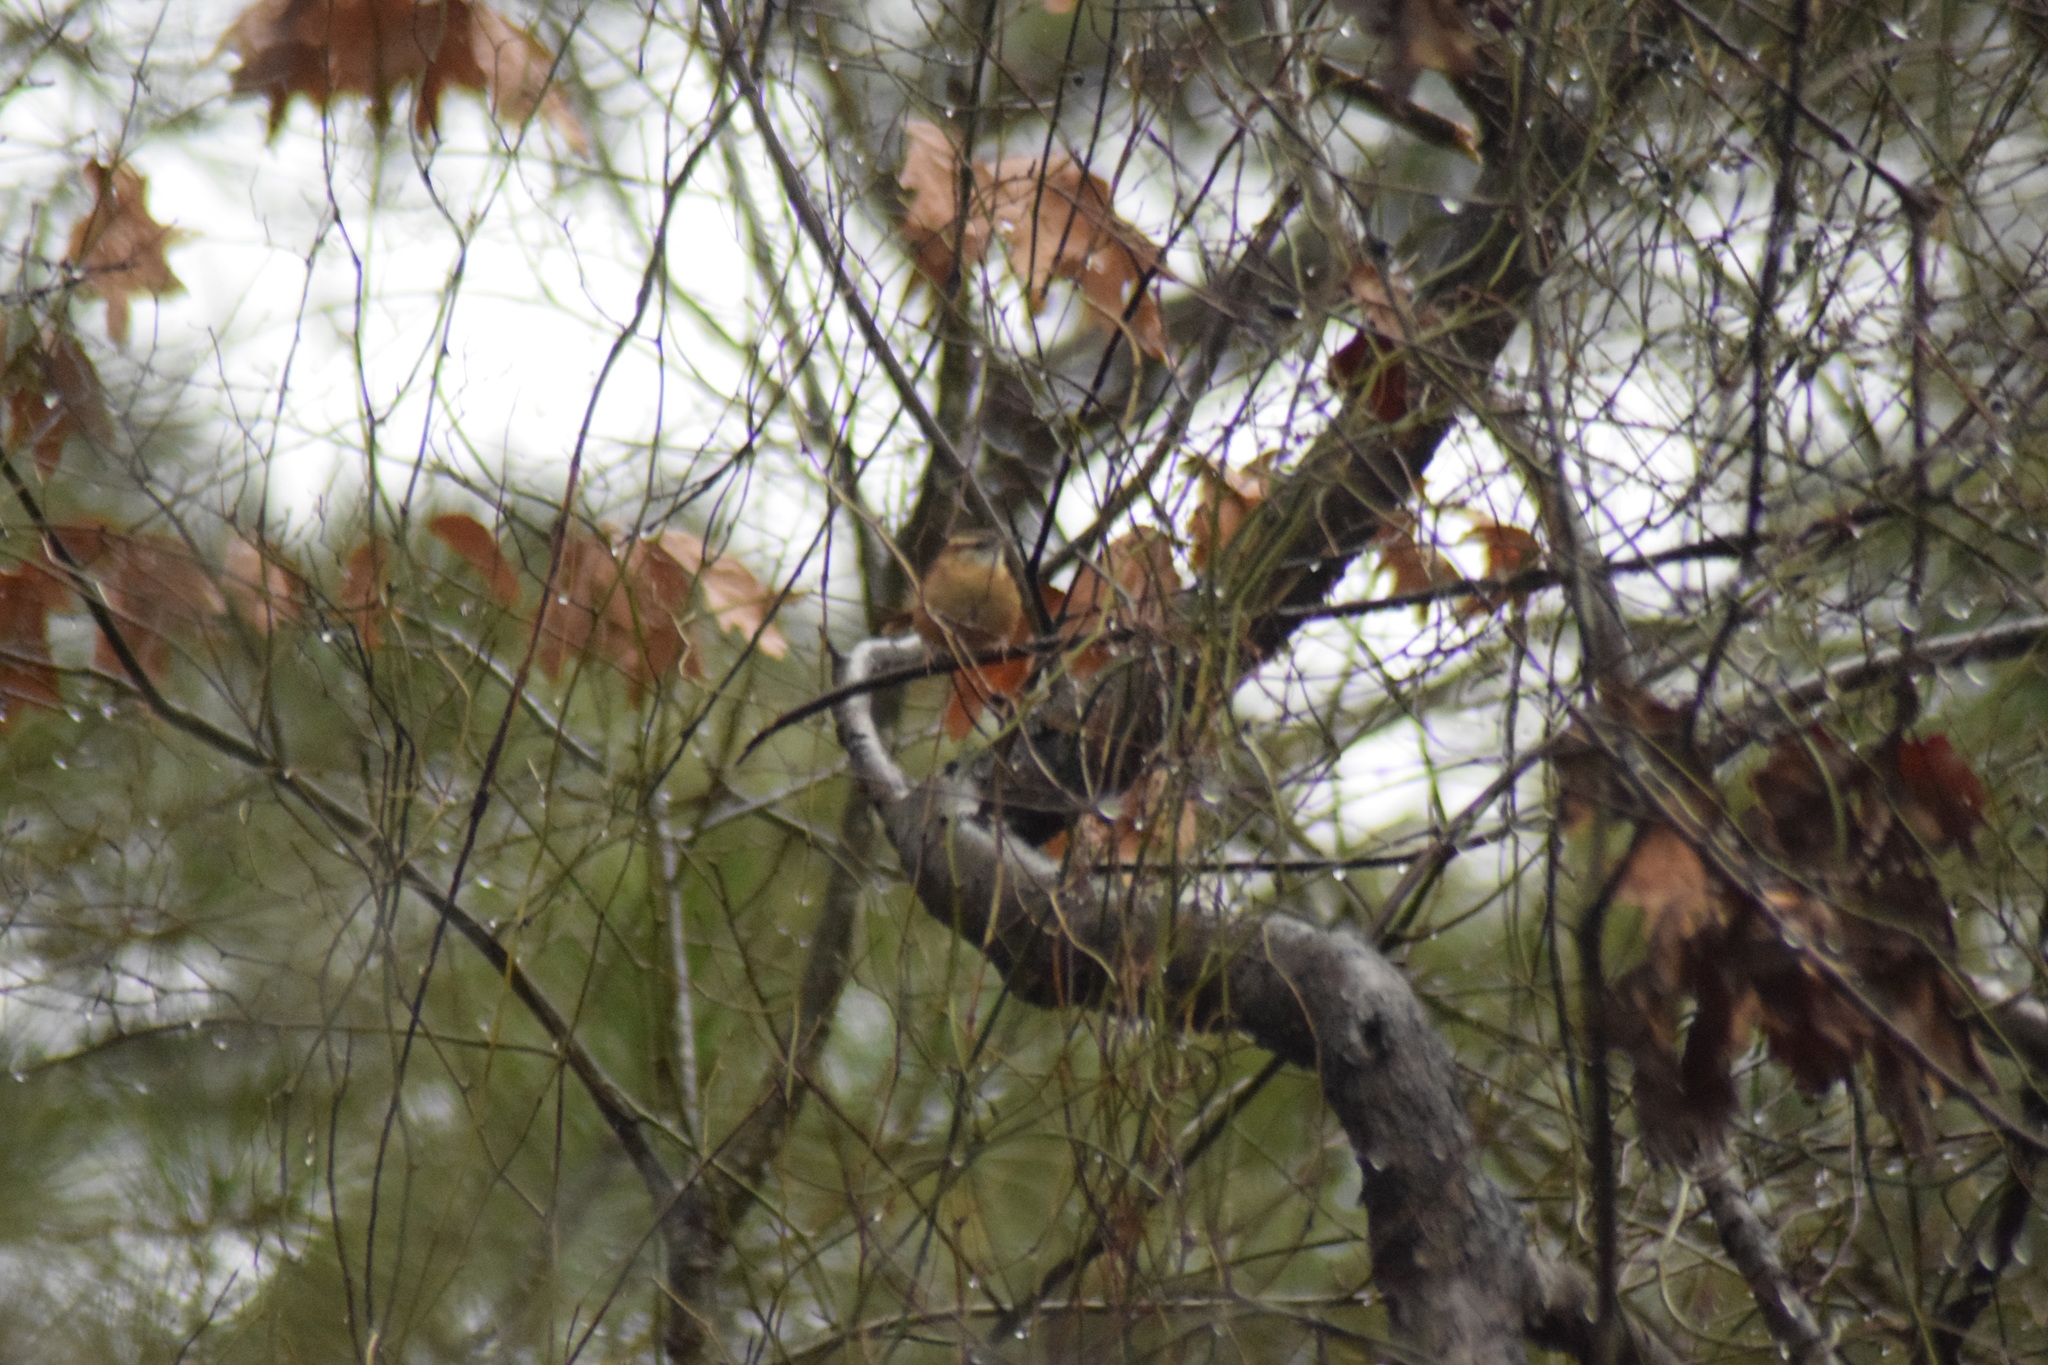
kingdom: Animalia
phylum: Chordata
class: Aves
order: Passeriformes
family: Troglodytidae
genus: Thryothorus
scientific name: Thryothorus ludovicianus
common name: Carolina wren
